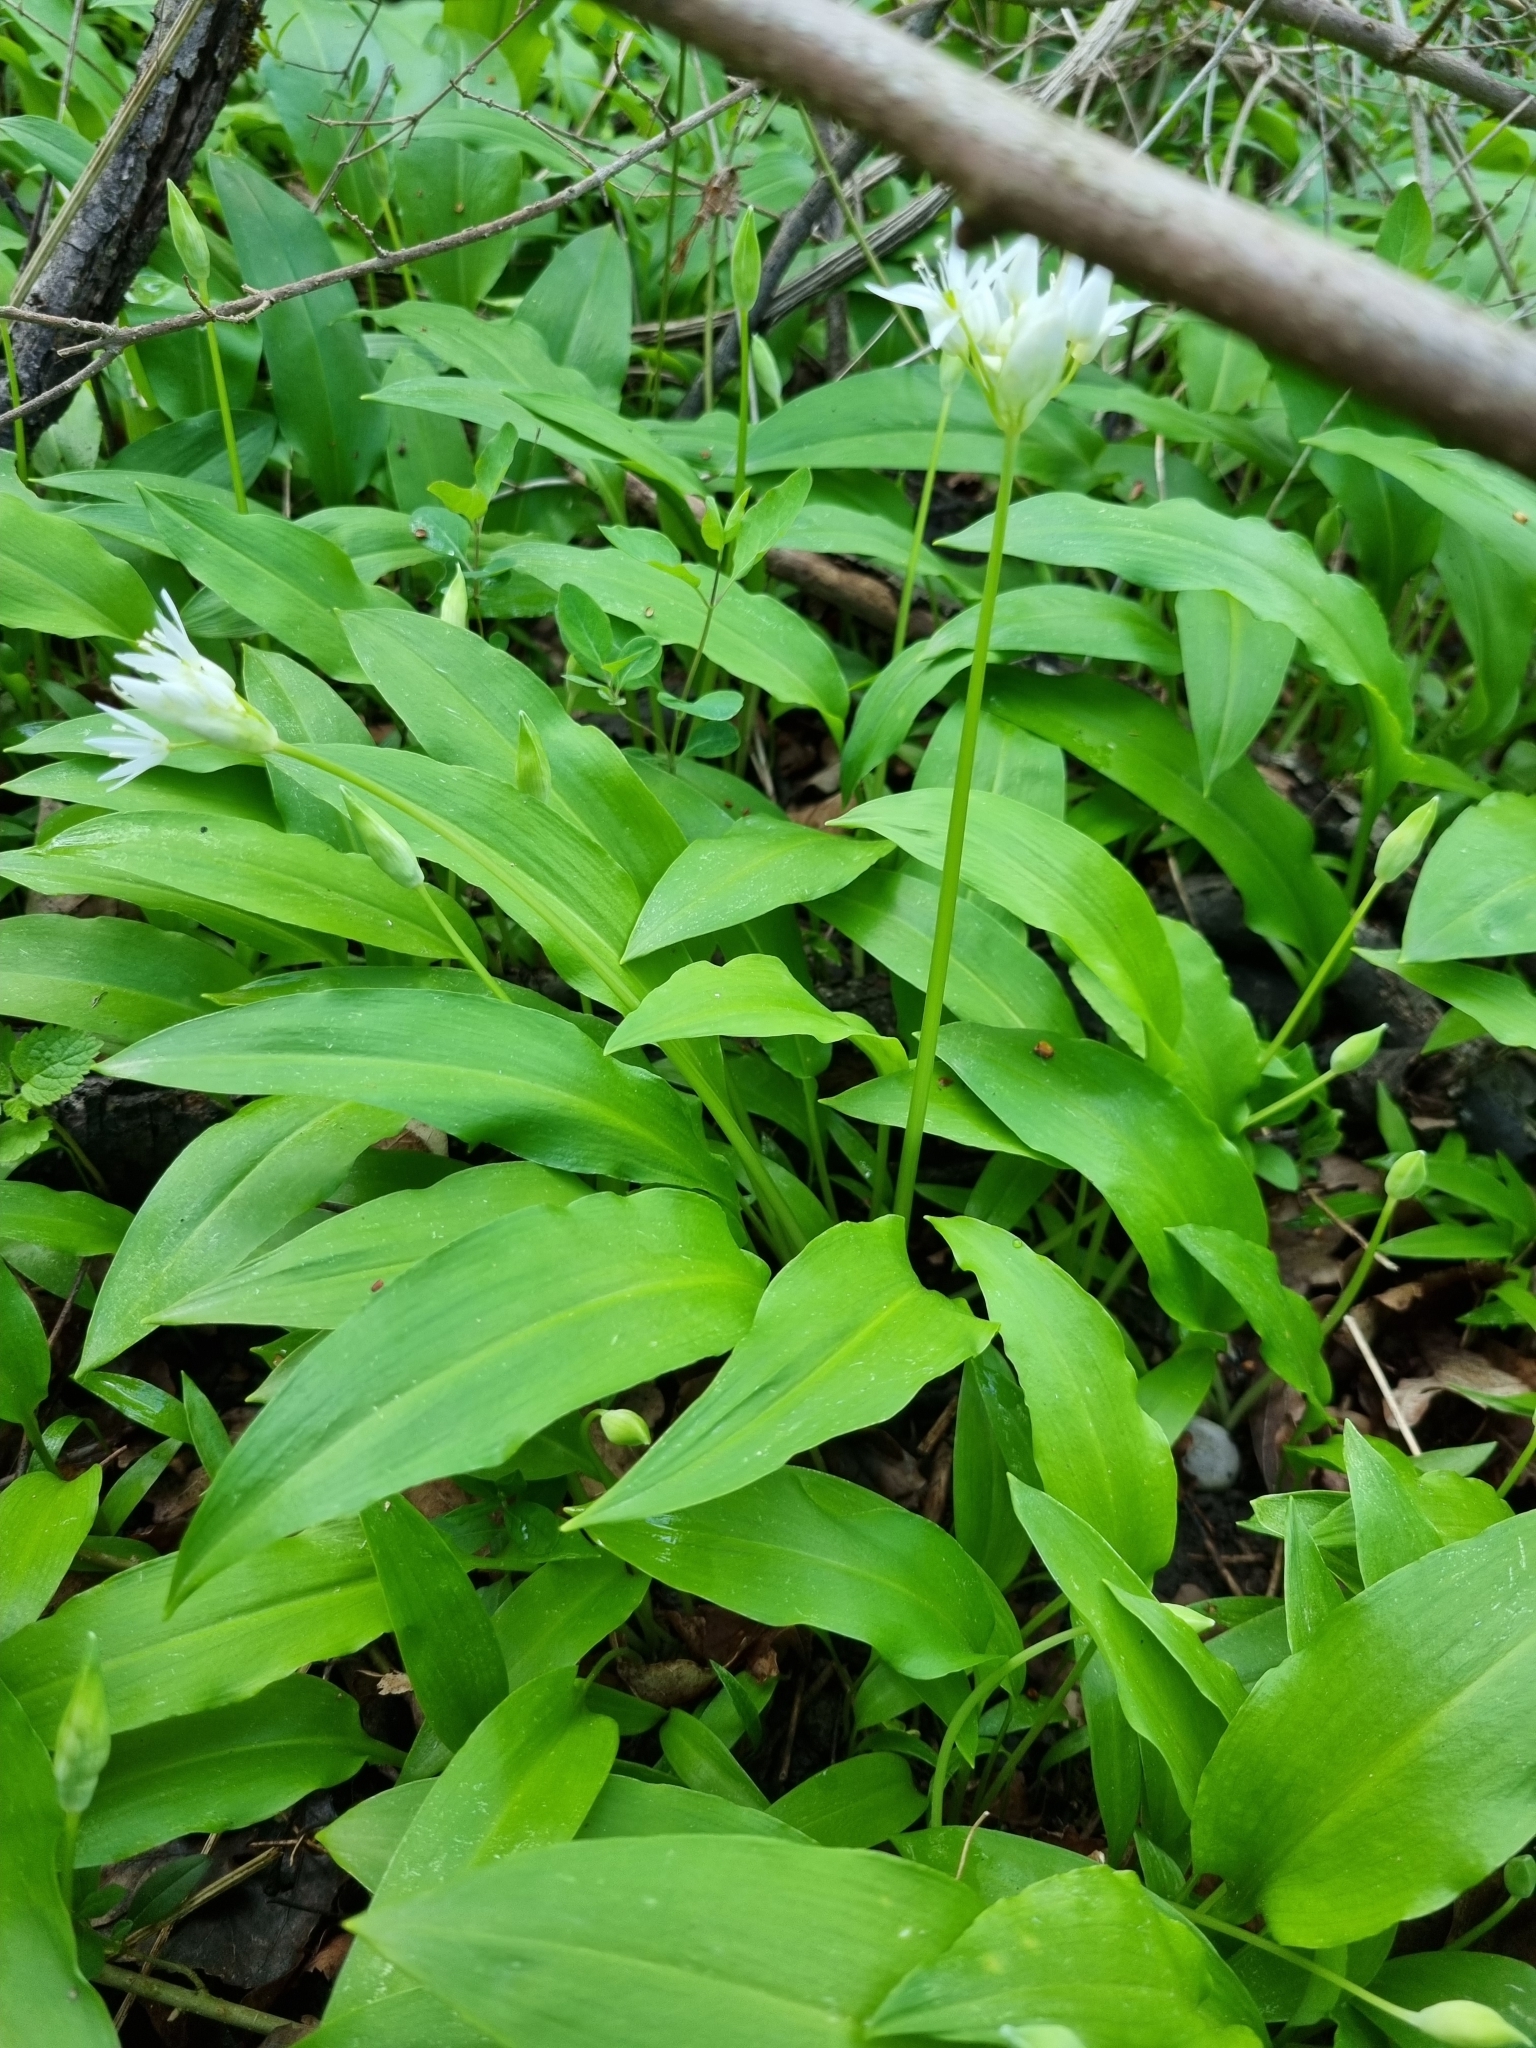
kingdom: Plantae
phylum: Tracheophyta
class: Liliopsida
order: Asparagales
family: Amaryllidaceae
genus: Allium
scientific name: Allium ursinum
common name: Ramsons
